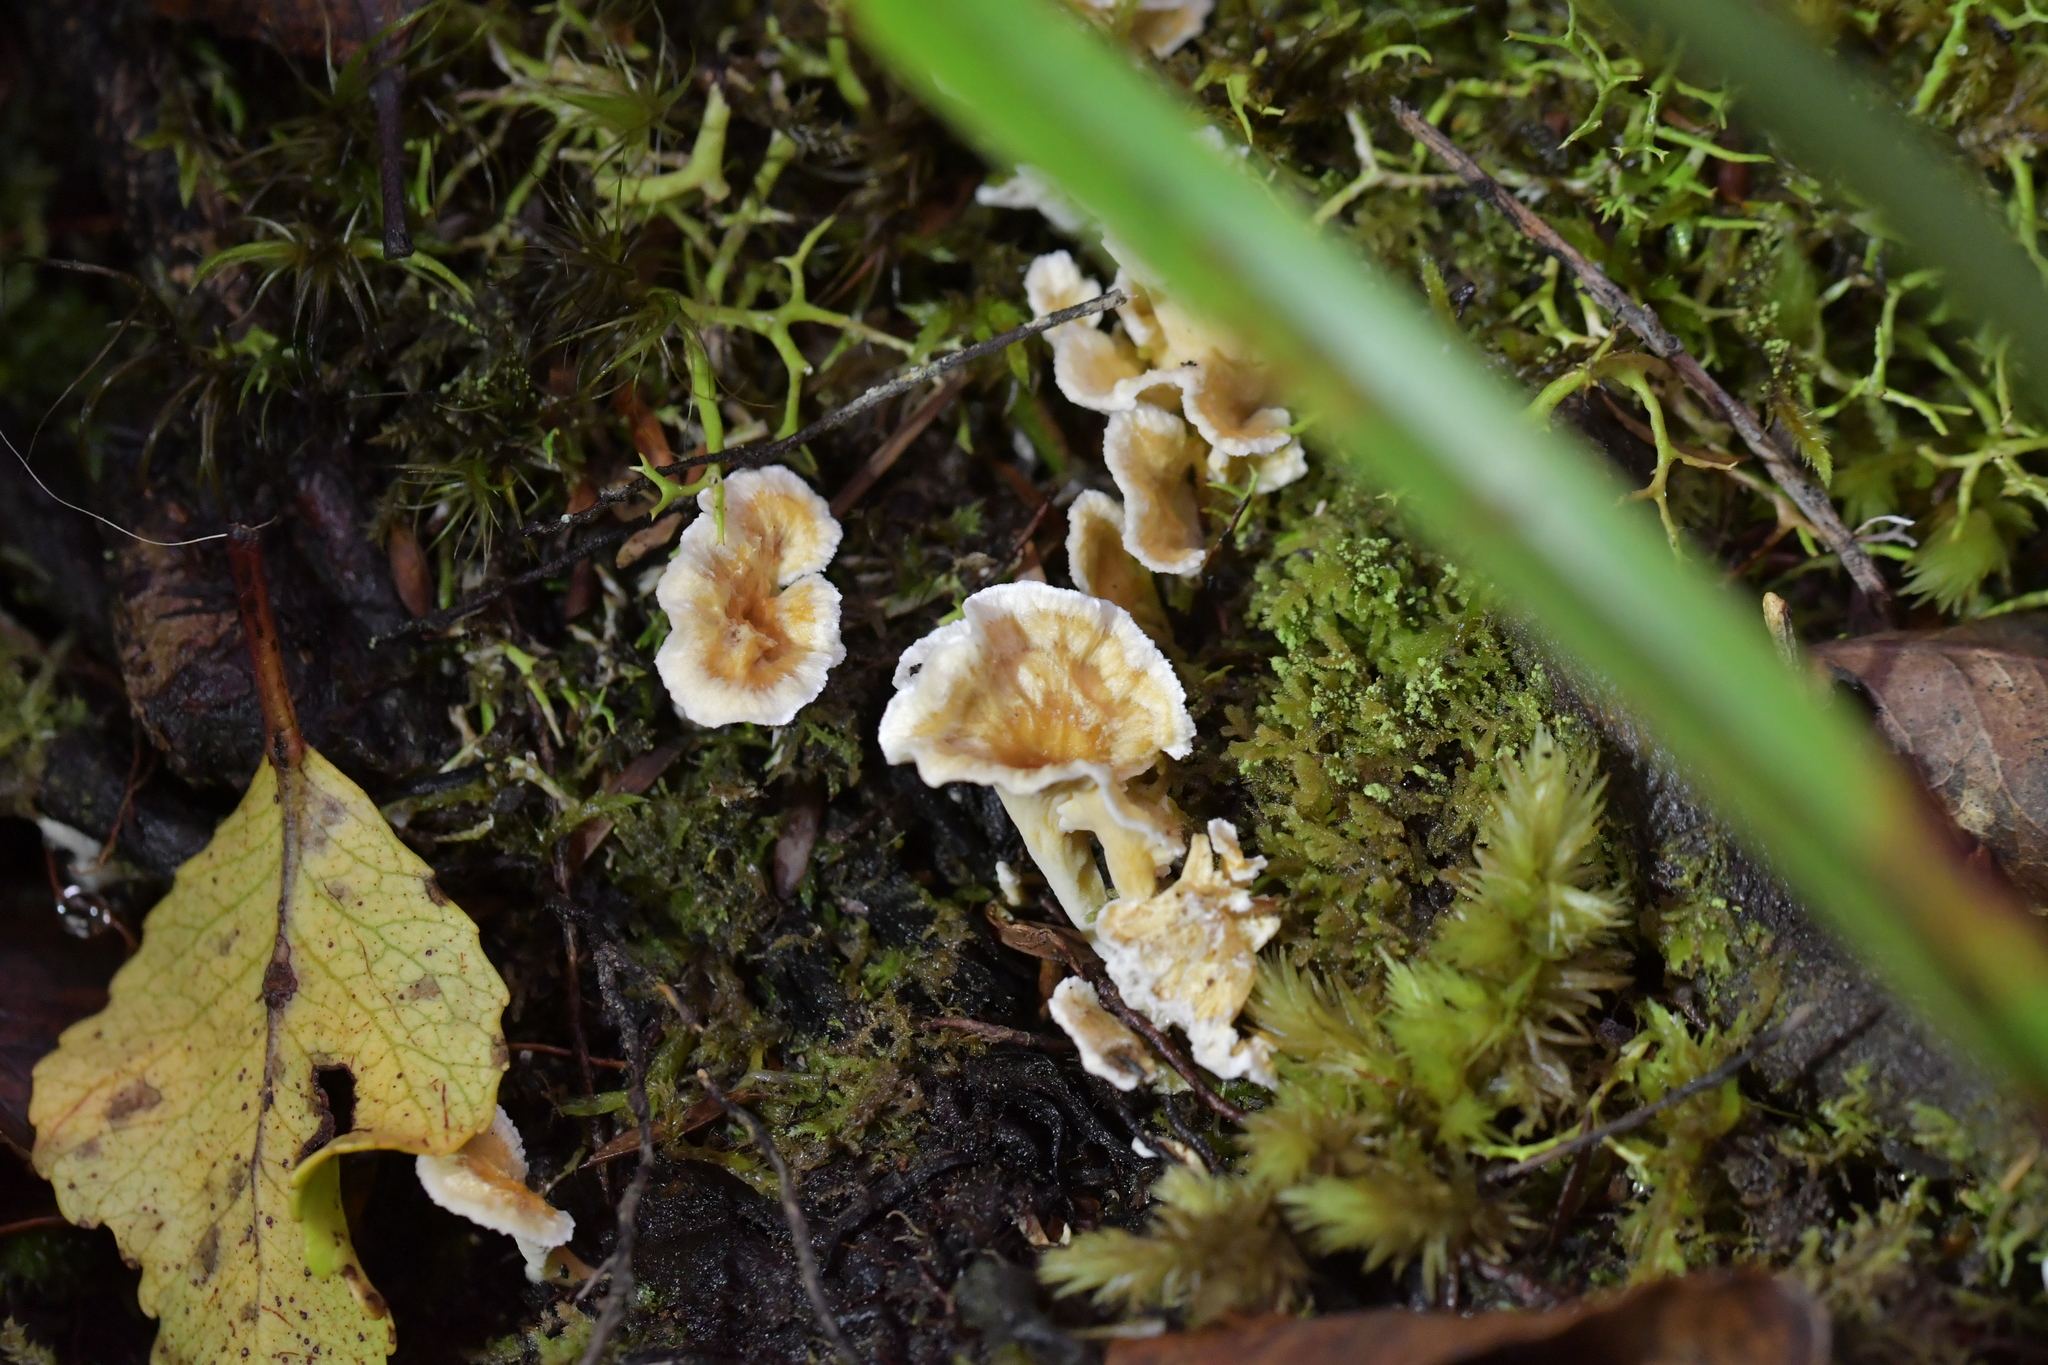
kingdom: Fungi
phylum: Basidiomycota
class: Agaricomycetes
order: Amylocorticiales
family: Amylocorticiaceae
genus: Podoserpula
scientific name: Podoserpula
